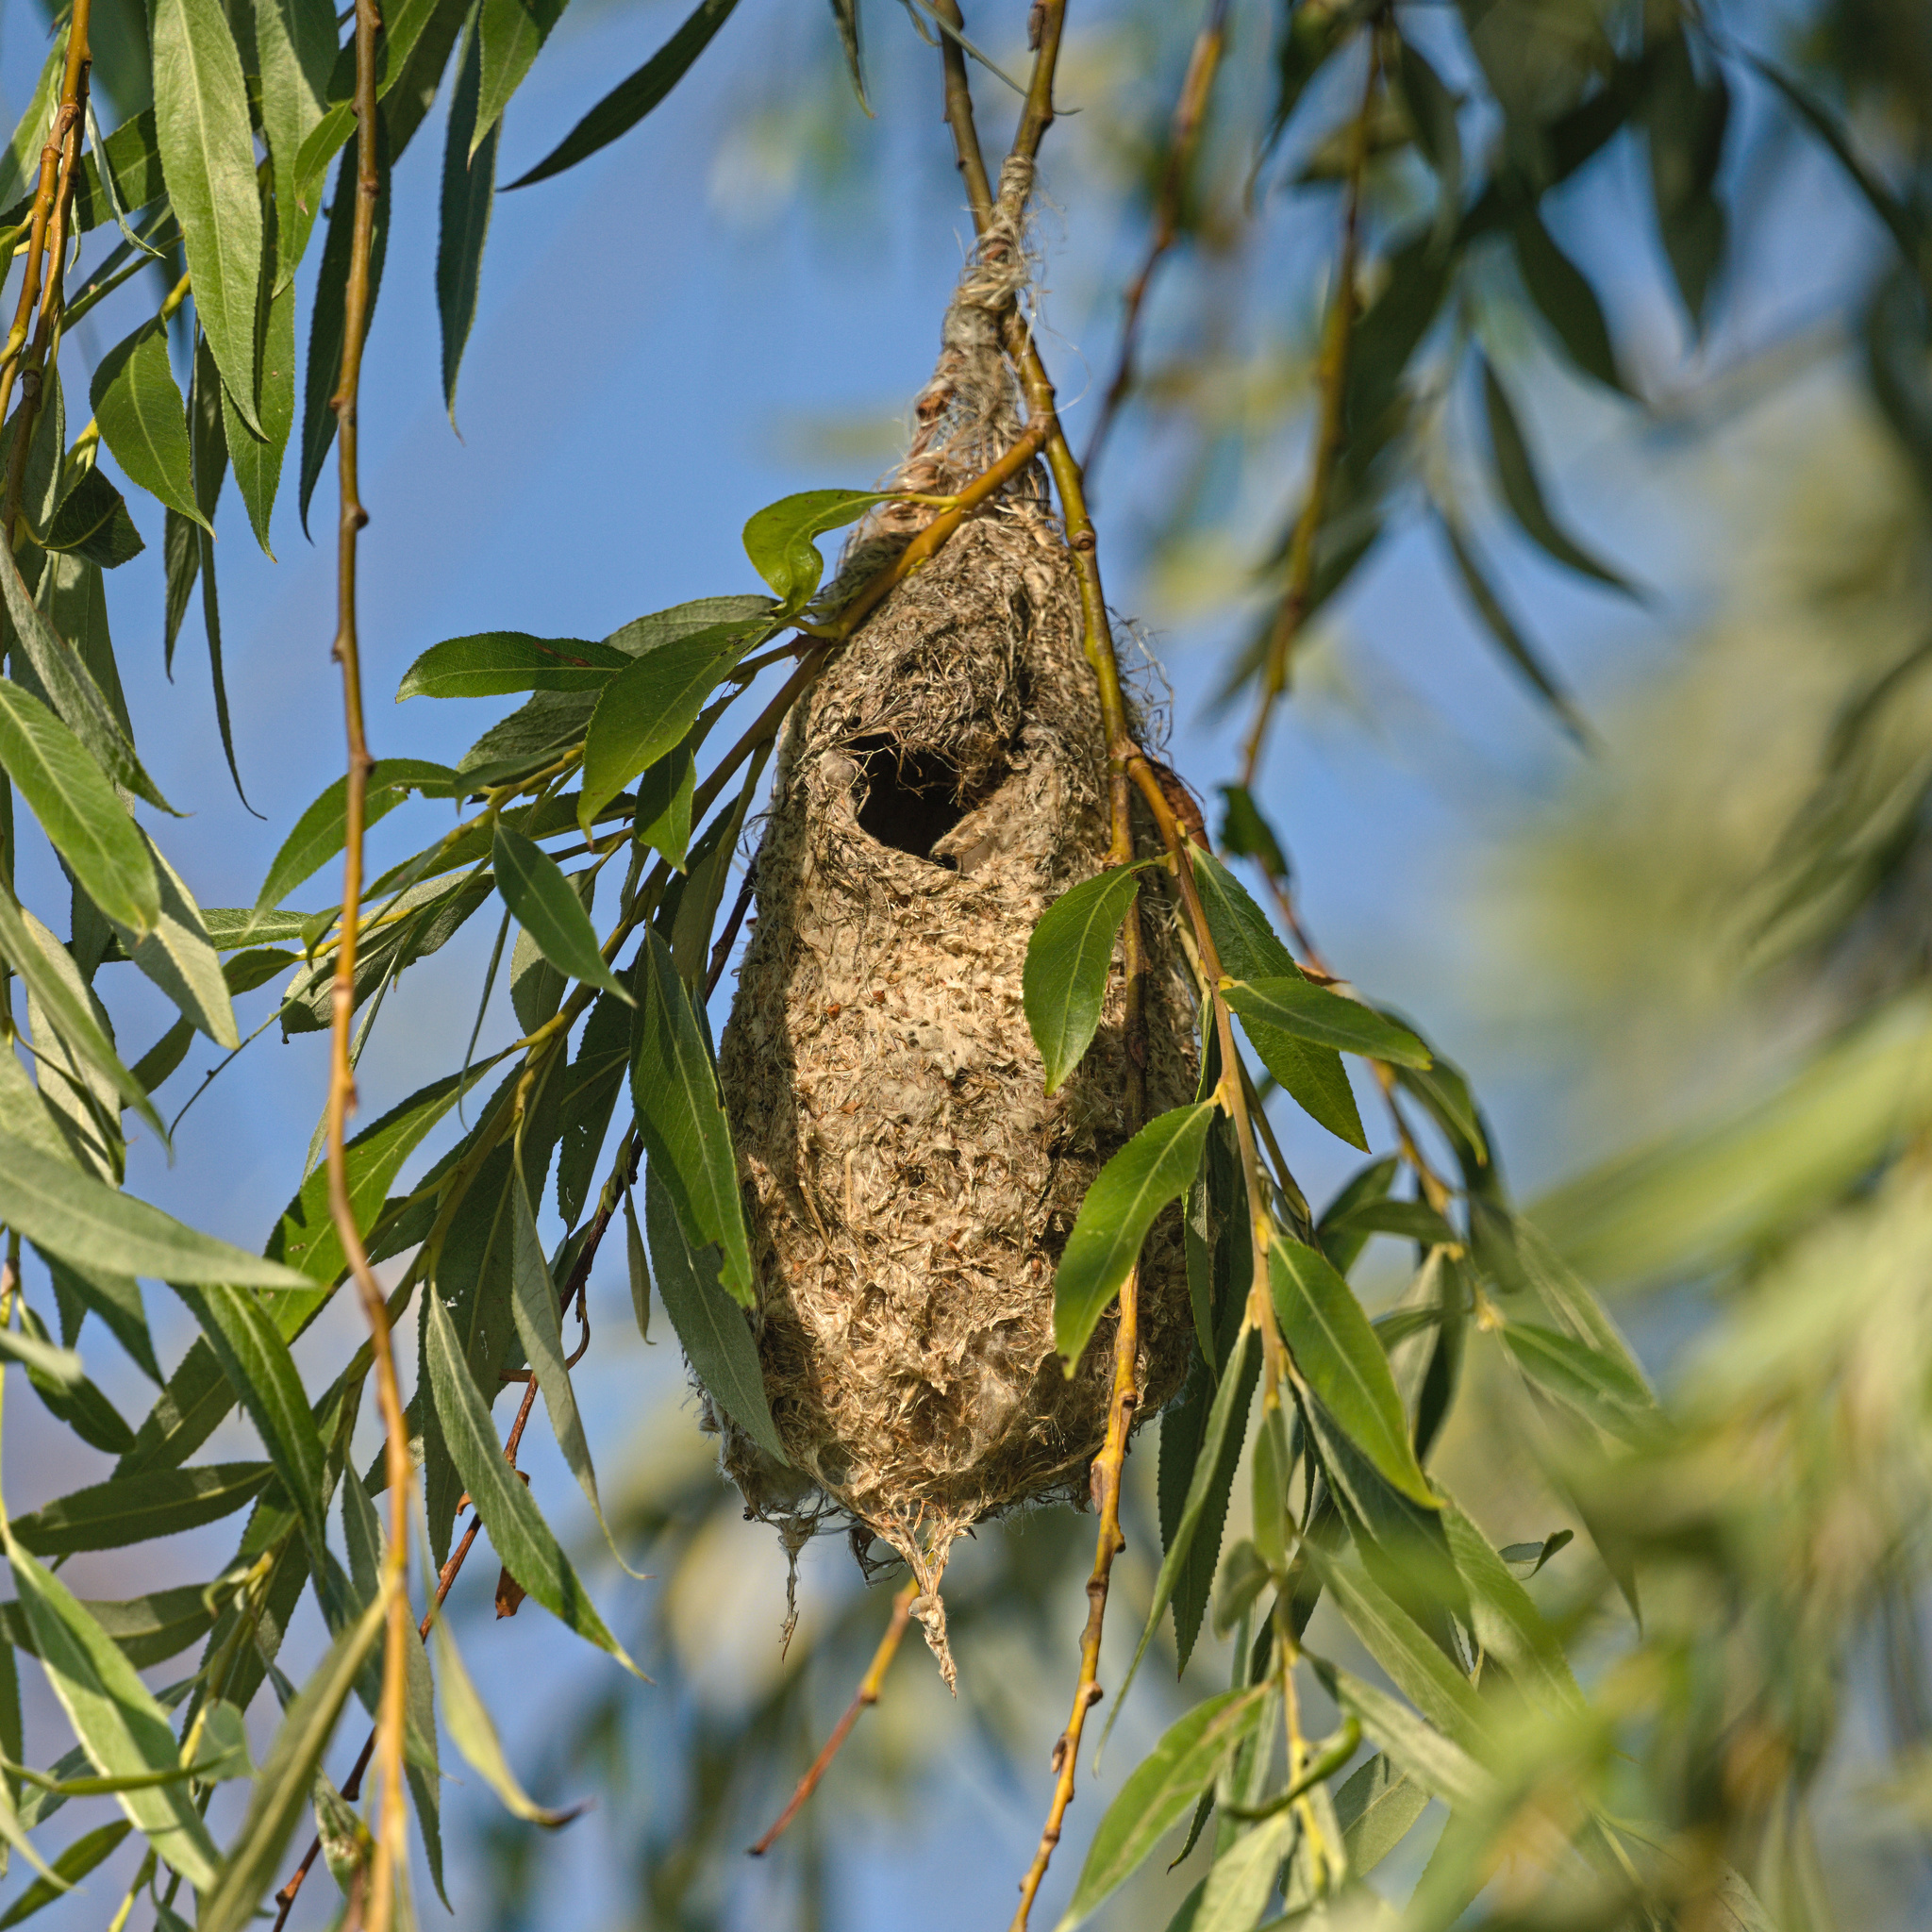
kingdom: Animalia
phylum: Chordata
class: Aves
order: Passeriformes
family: Remizidae
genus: Remiz
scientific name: Remiz pendulinus
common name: Eurasian penduline tit
